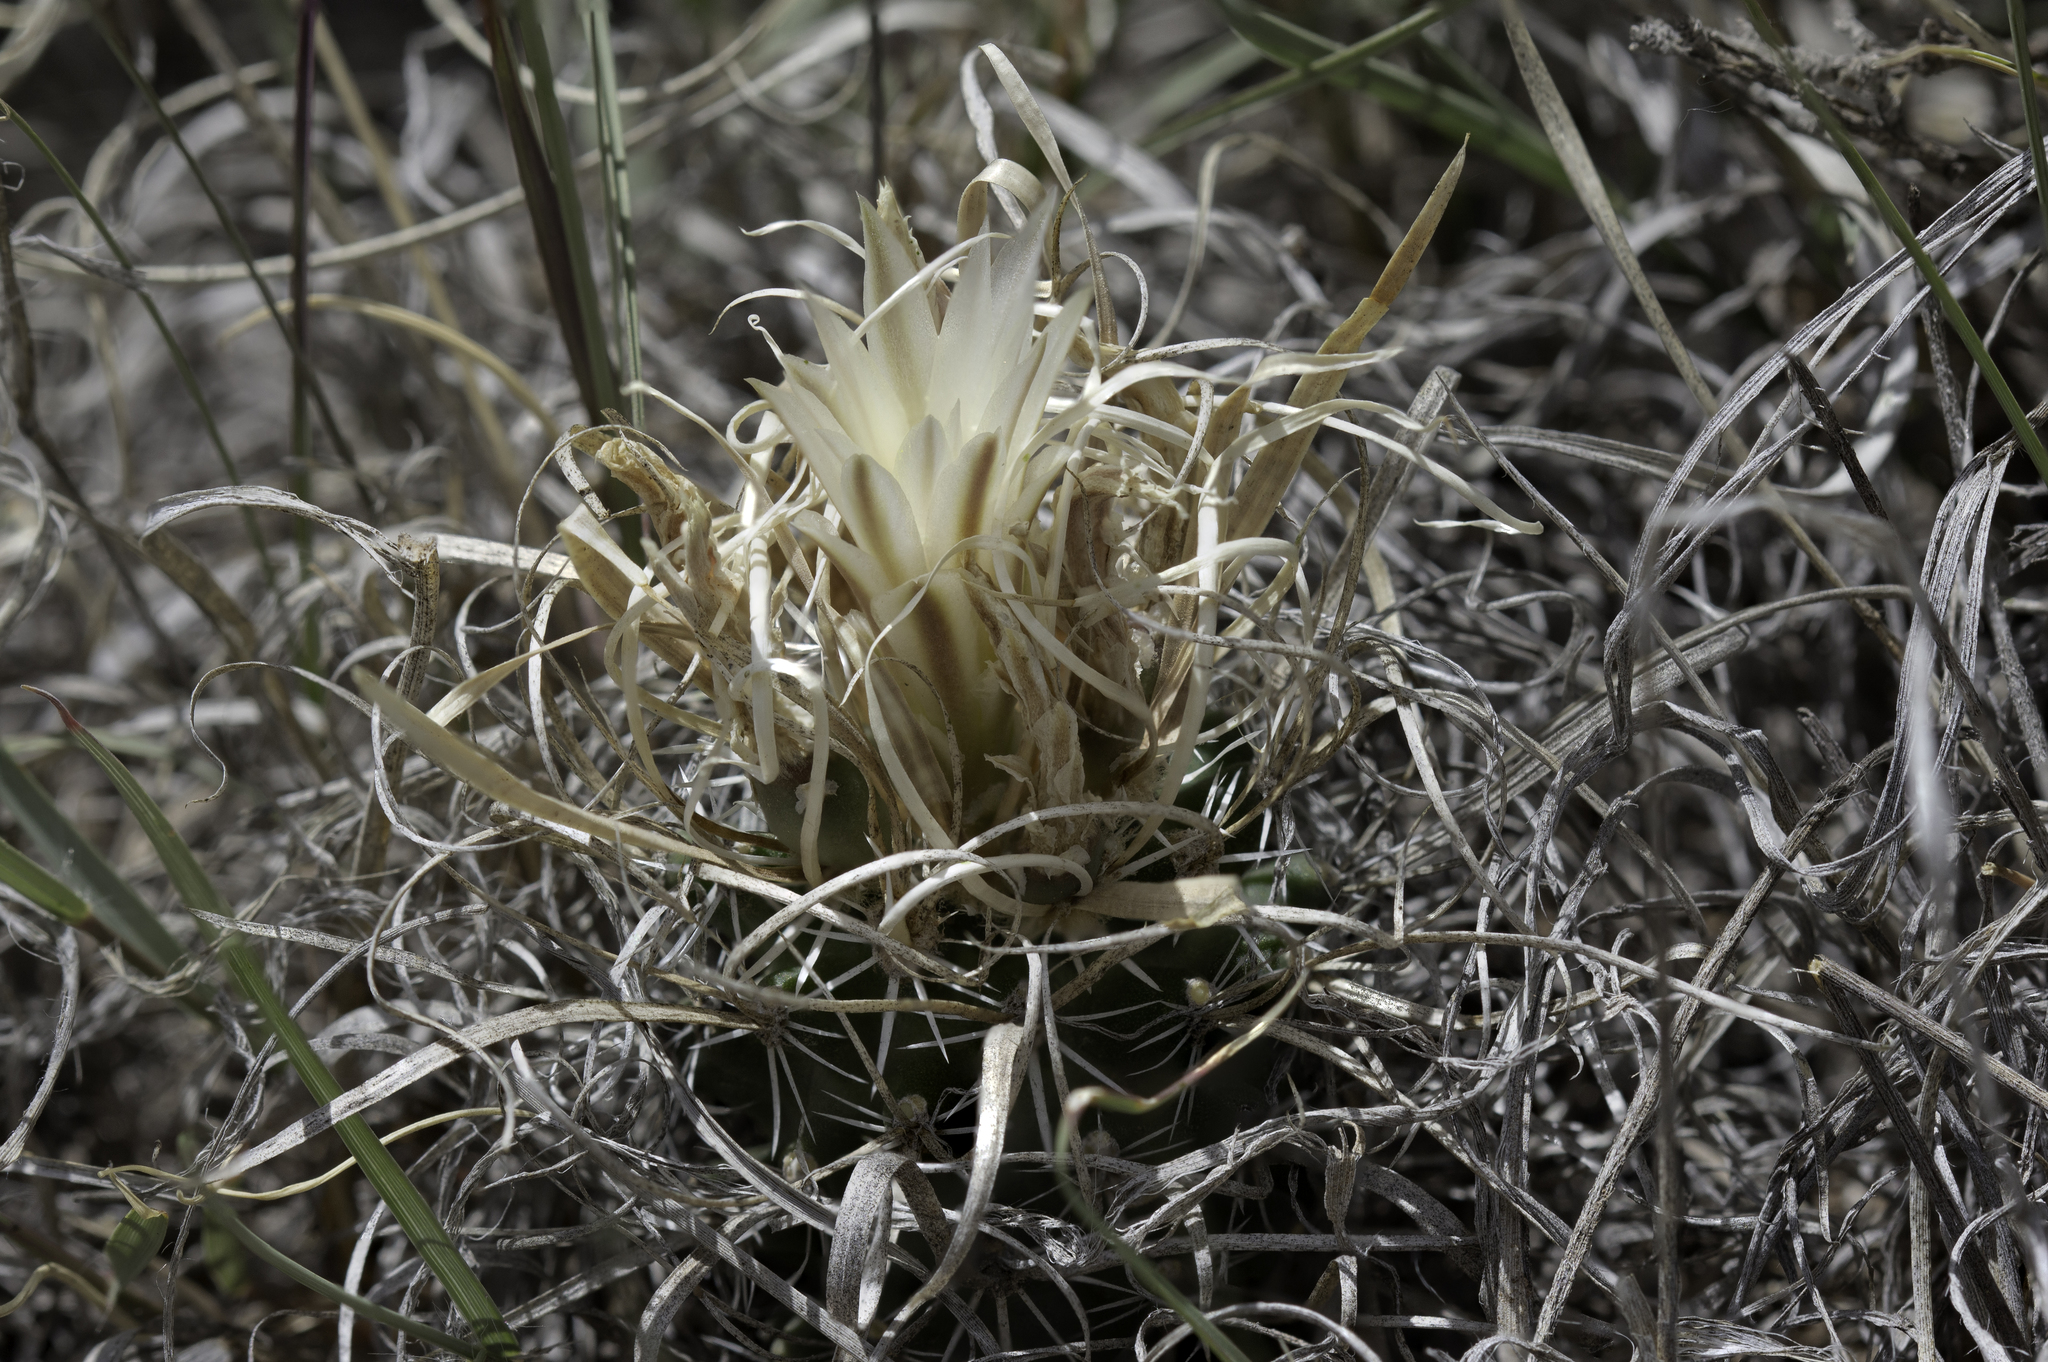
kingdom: Plantae
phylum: Tracheophyta
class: Magnoliopsida
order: Caryophyllales
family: Cactaceae
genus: Sclerocactus
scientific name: Sclerocactus papyracanthus
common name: Grama grass cactus
